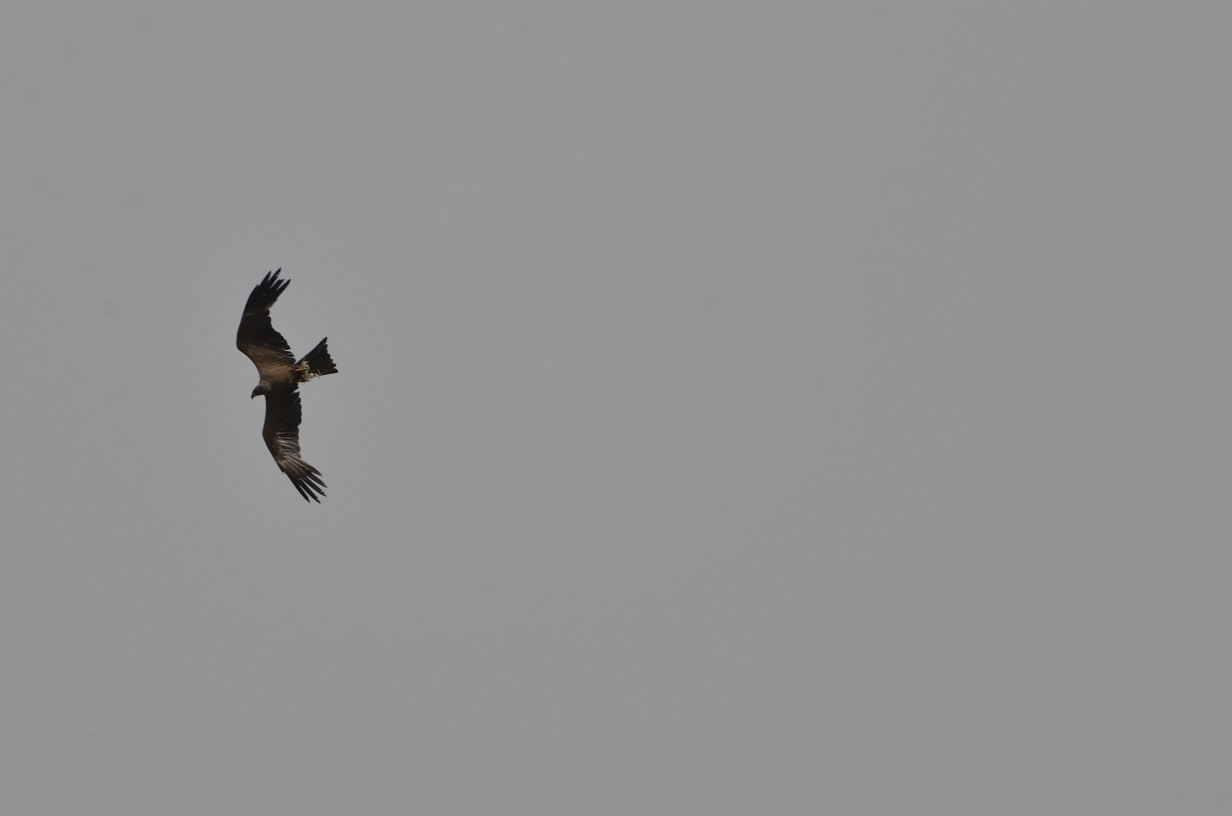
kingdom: Animalia
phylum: Chordata
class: Aves
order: Accipitriformes
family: Accipitridae
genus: Milvus
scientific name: Milvus migrans
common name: Black kite
